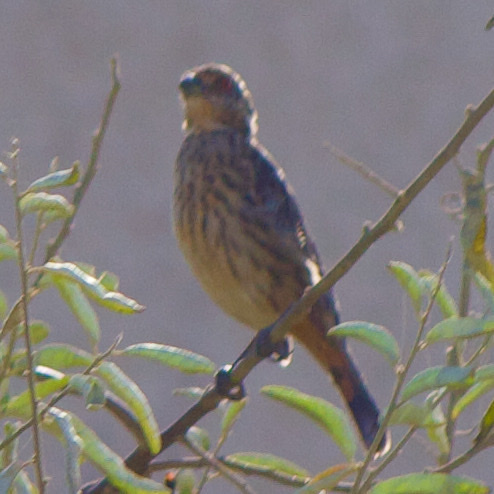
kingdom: Animalia
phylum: Chordata
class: Aves
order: Passeriformes
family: Cotingidae
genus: Phytotoma
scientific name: Phytotoma rara
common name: Rufous-tailed plantcutter
